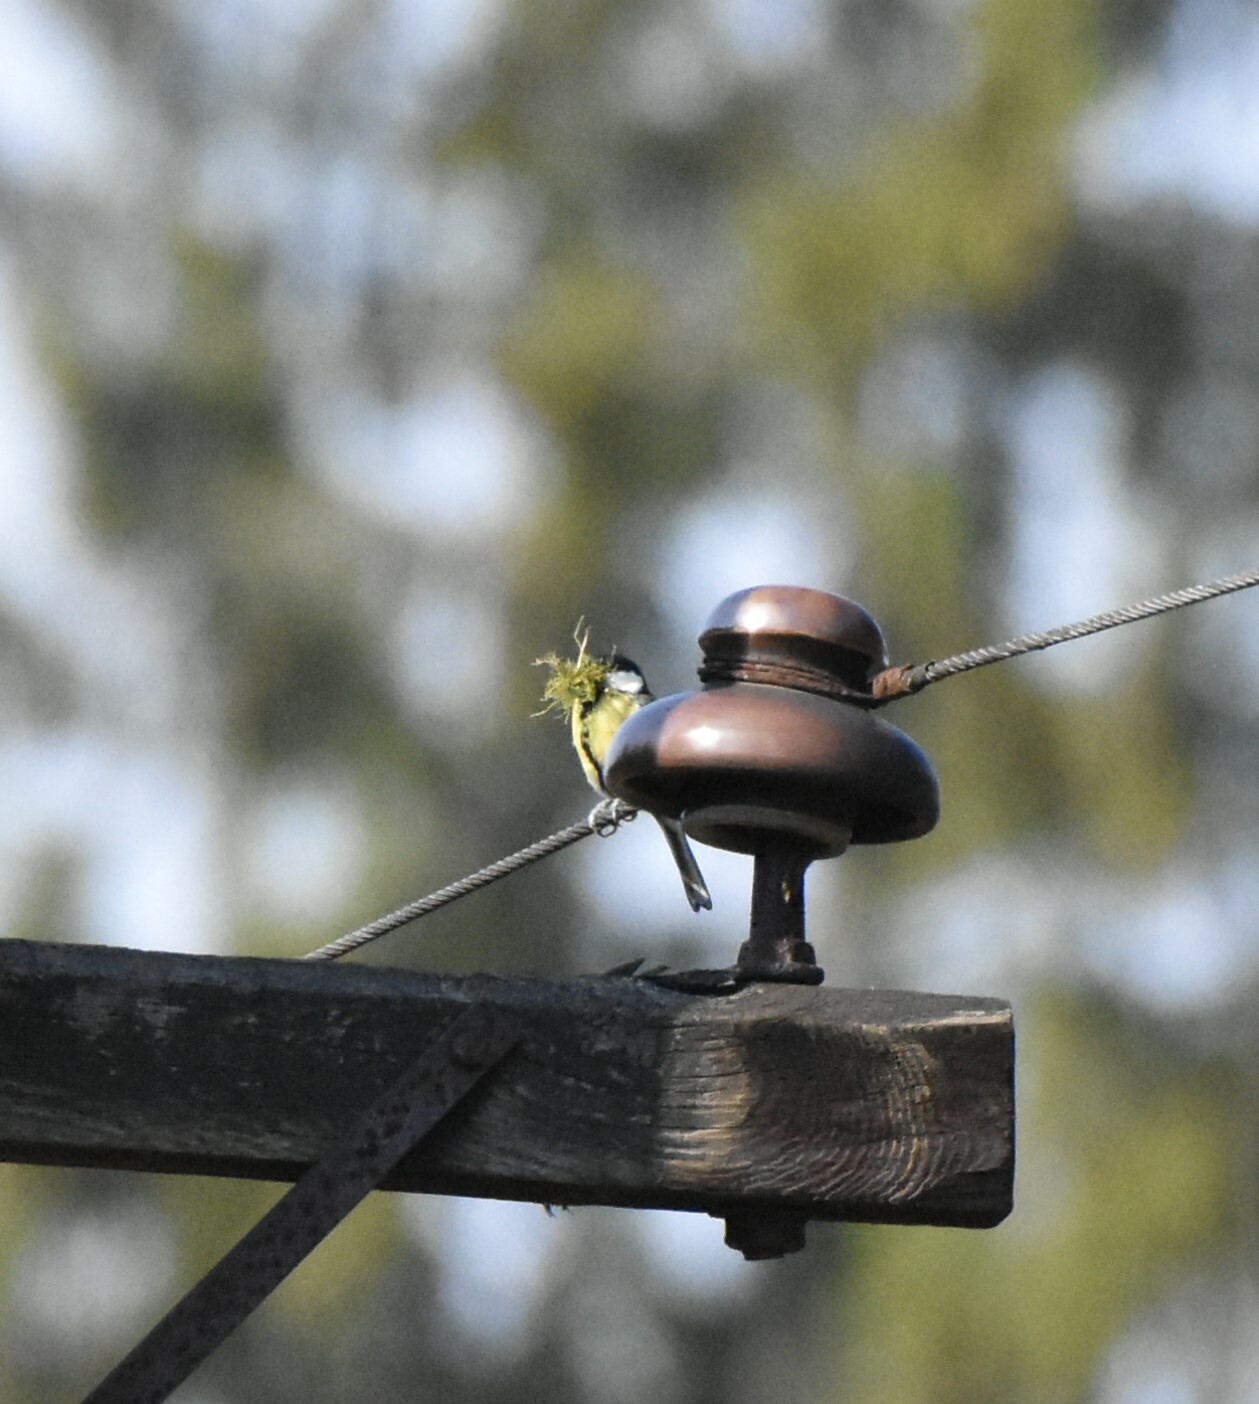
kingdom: Animalia
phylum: Chordata
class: Aves
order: Passeriformes
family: Paridae
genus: Parus
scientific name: Parus major
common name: Great tit
